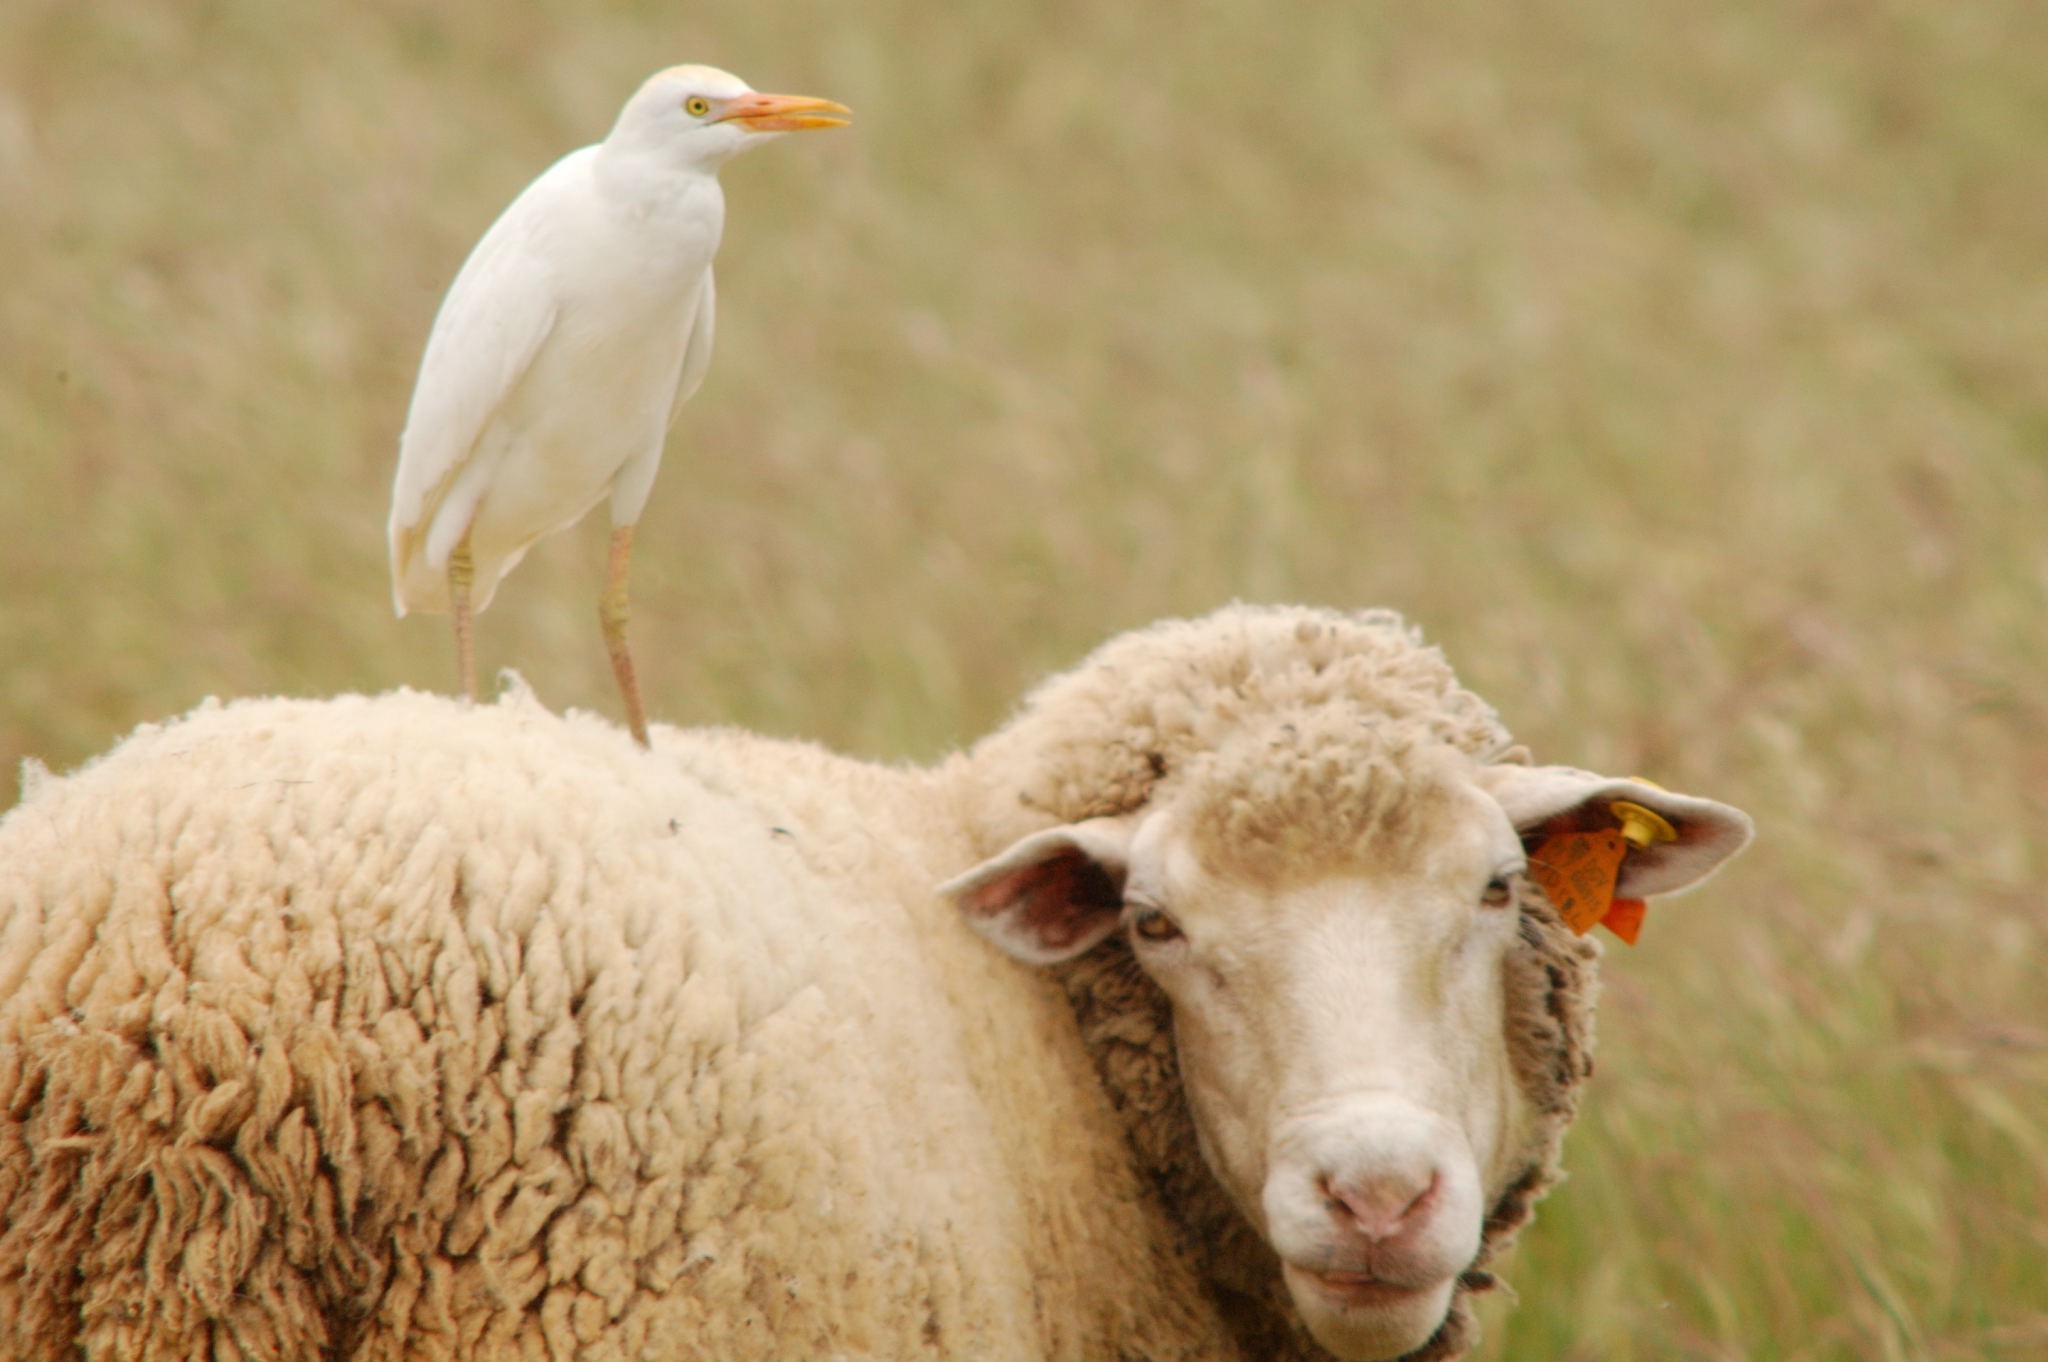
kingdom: Animalia
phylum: Chordata
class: Aves
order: Pelecaniformes
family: Ardeidae
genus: Bubulcus
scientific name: Bubulcus ibis
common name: Cattle egret
